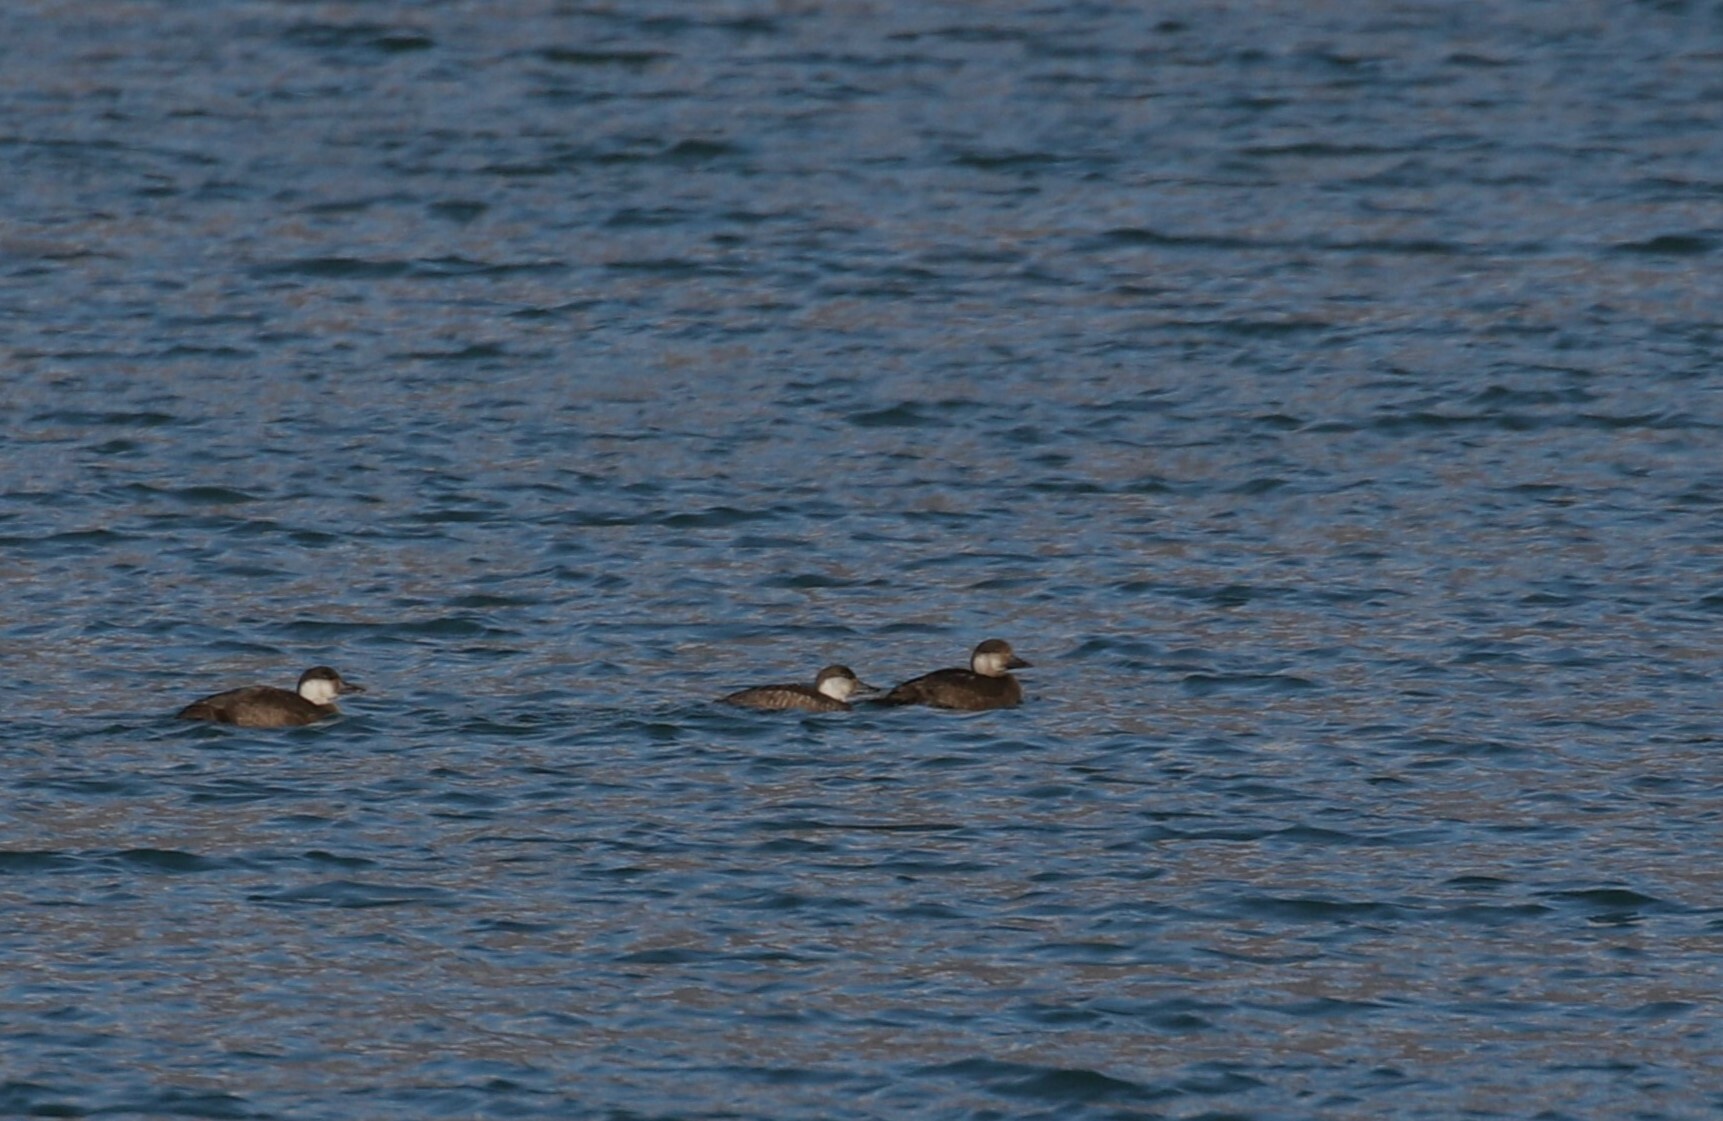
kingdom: Animalia
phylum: Chordata
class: Aves
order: Anseriformes
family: Anatidae
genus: Melanitta
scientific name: Melanitta nigra
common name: Common scoter
